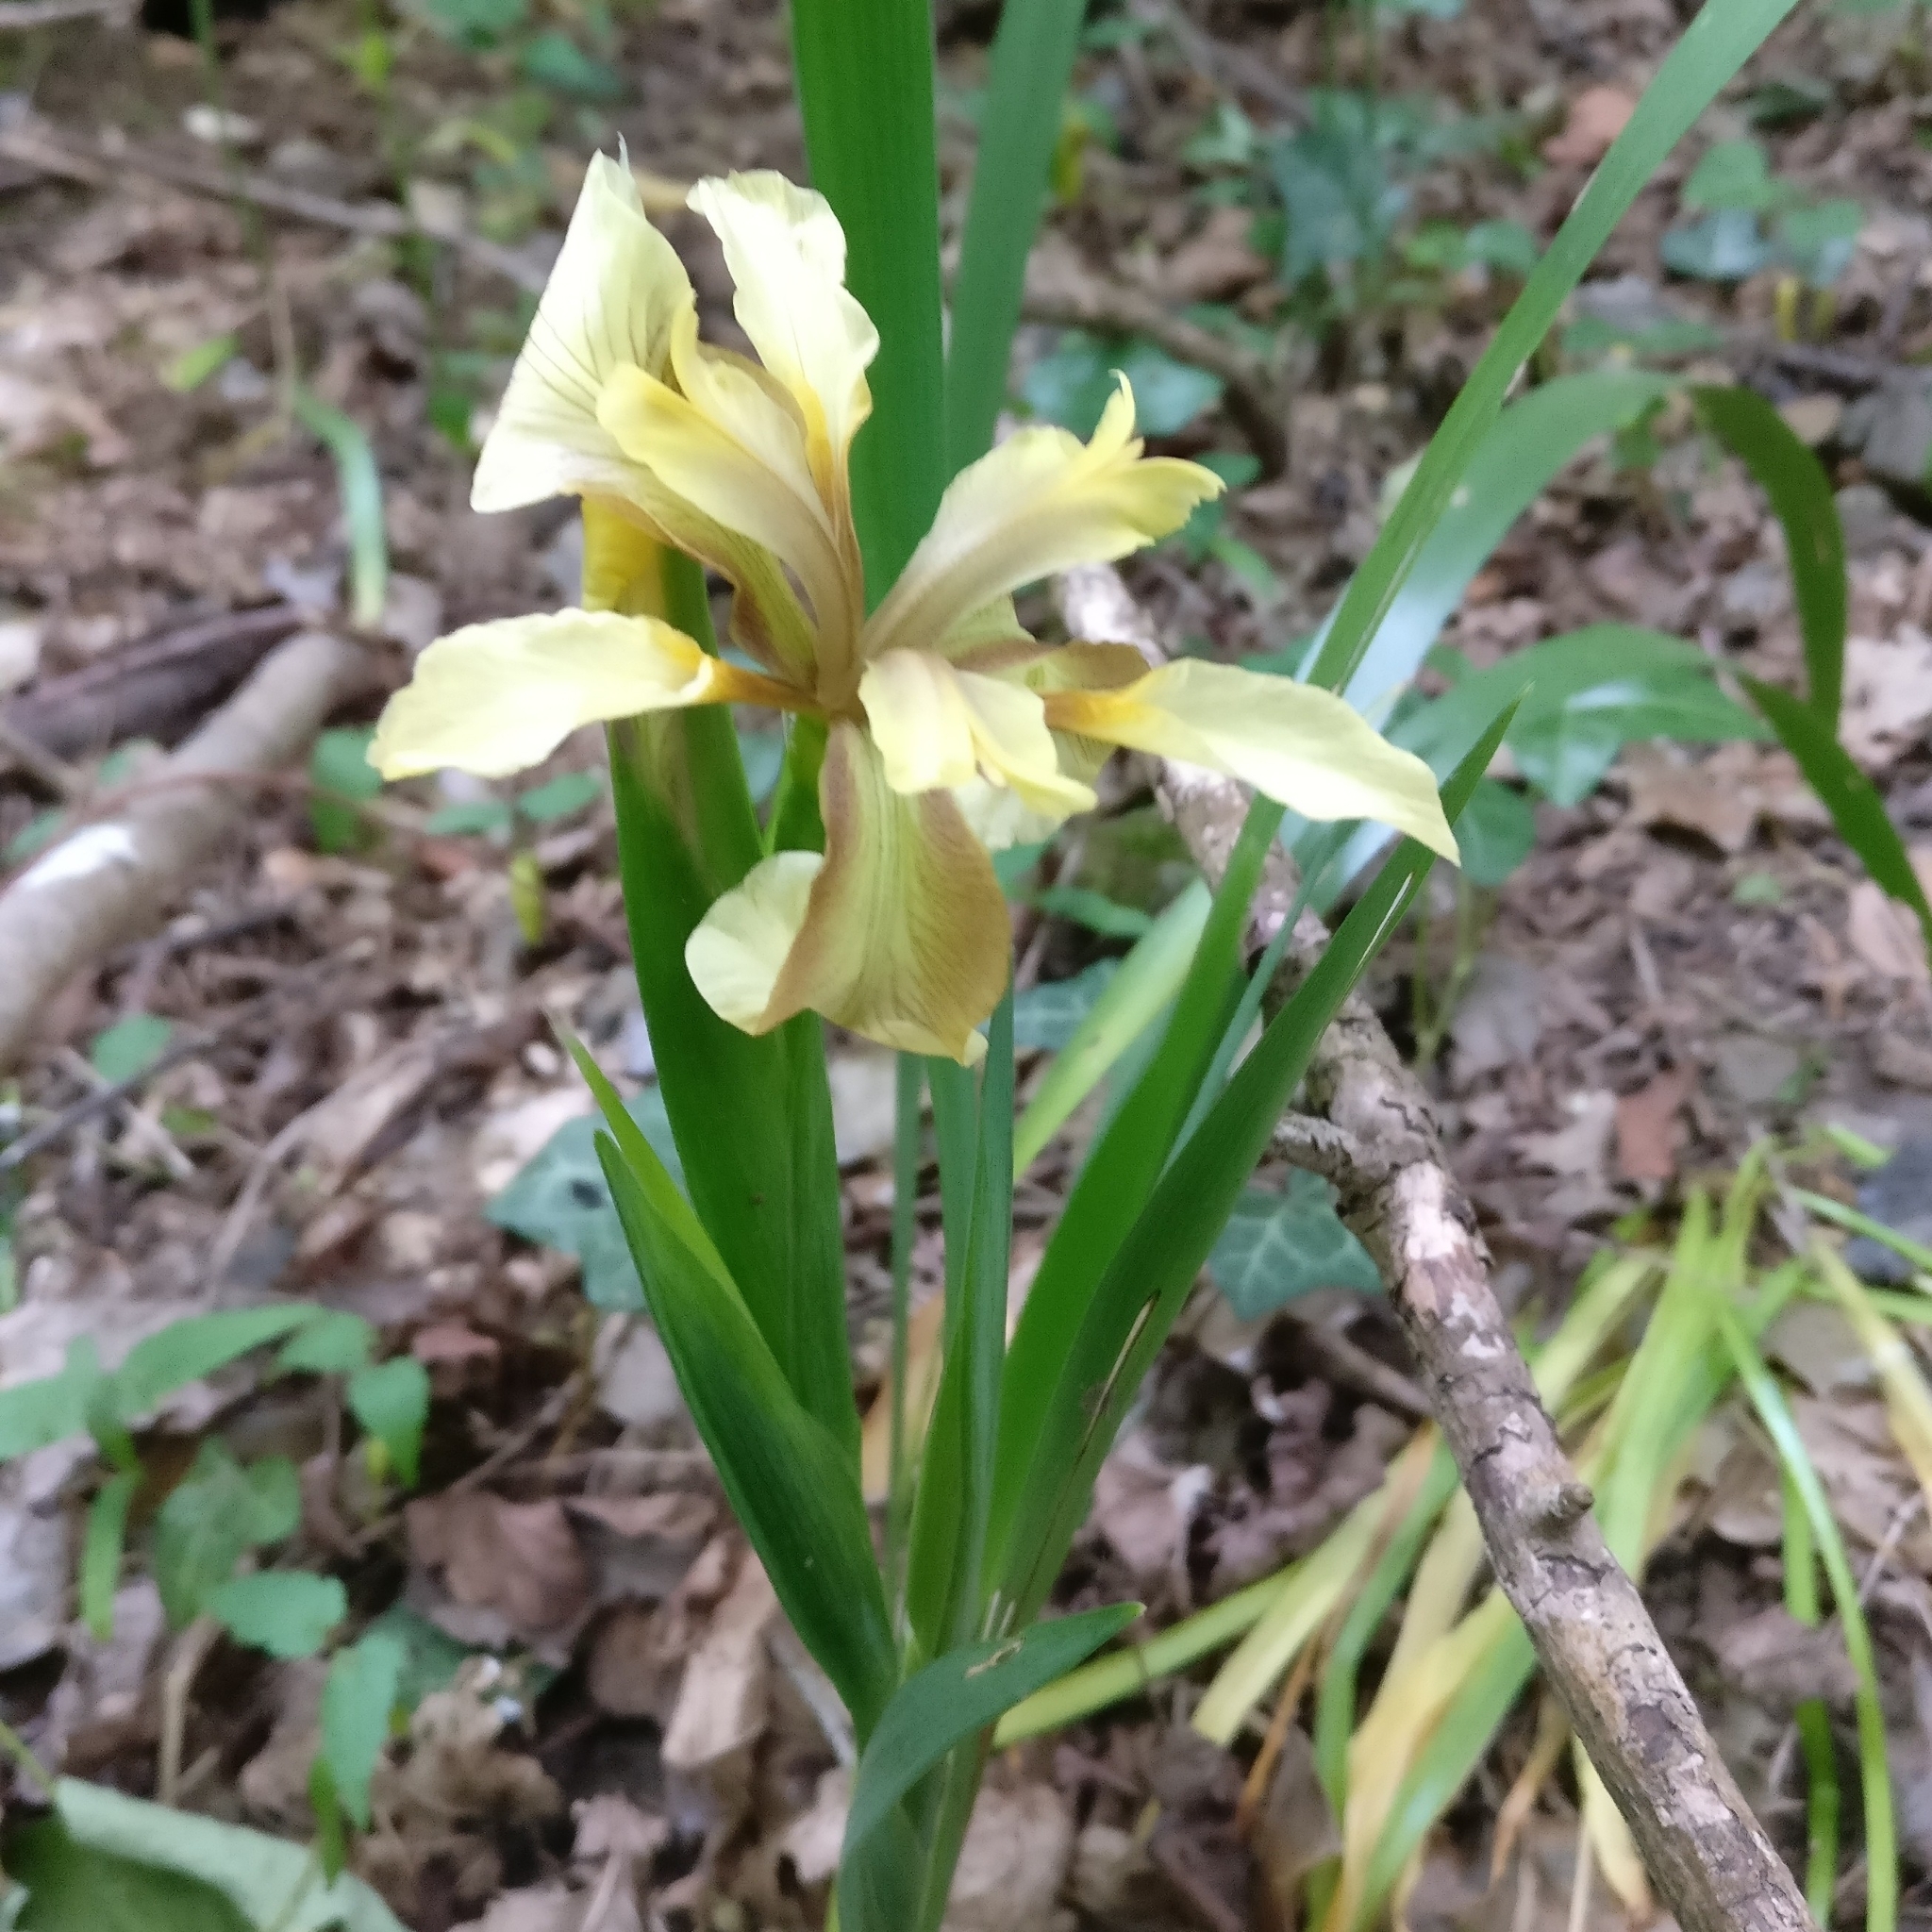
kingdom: Plantae
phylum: Tracheophyta
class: Liliopsida
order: Asparagales
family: Iridaceae
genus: Iris
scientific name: Iris foetidissima
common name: Stinking iris
